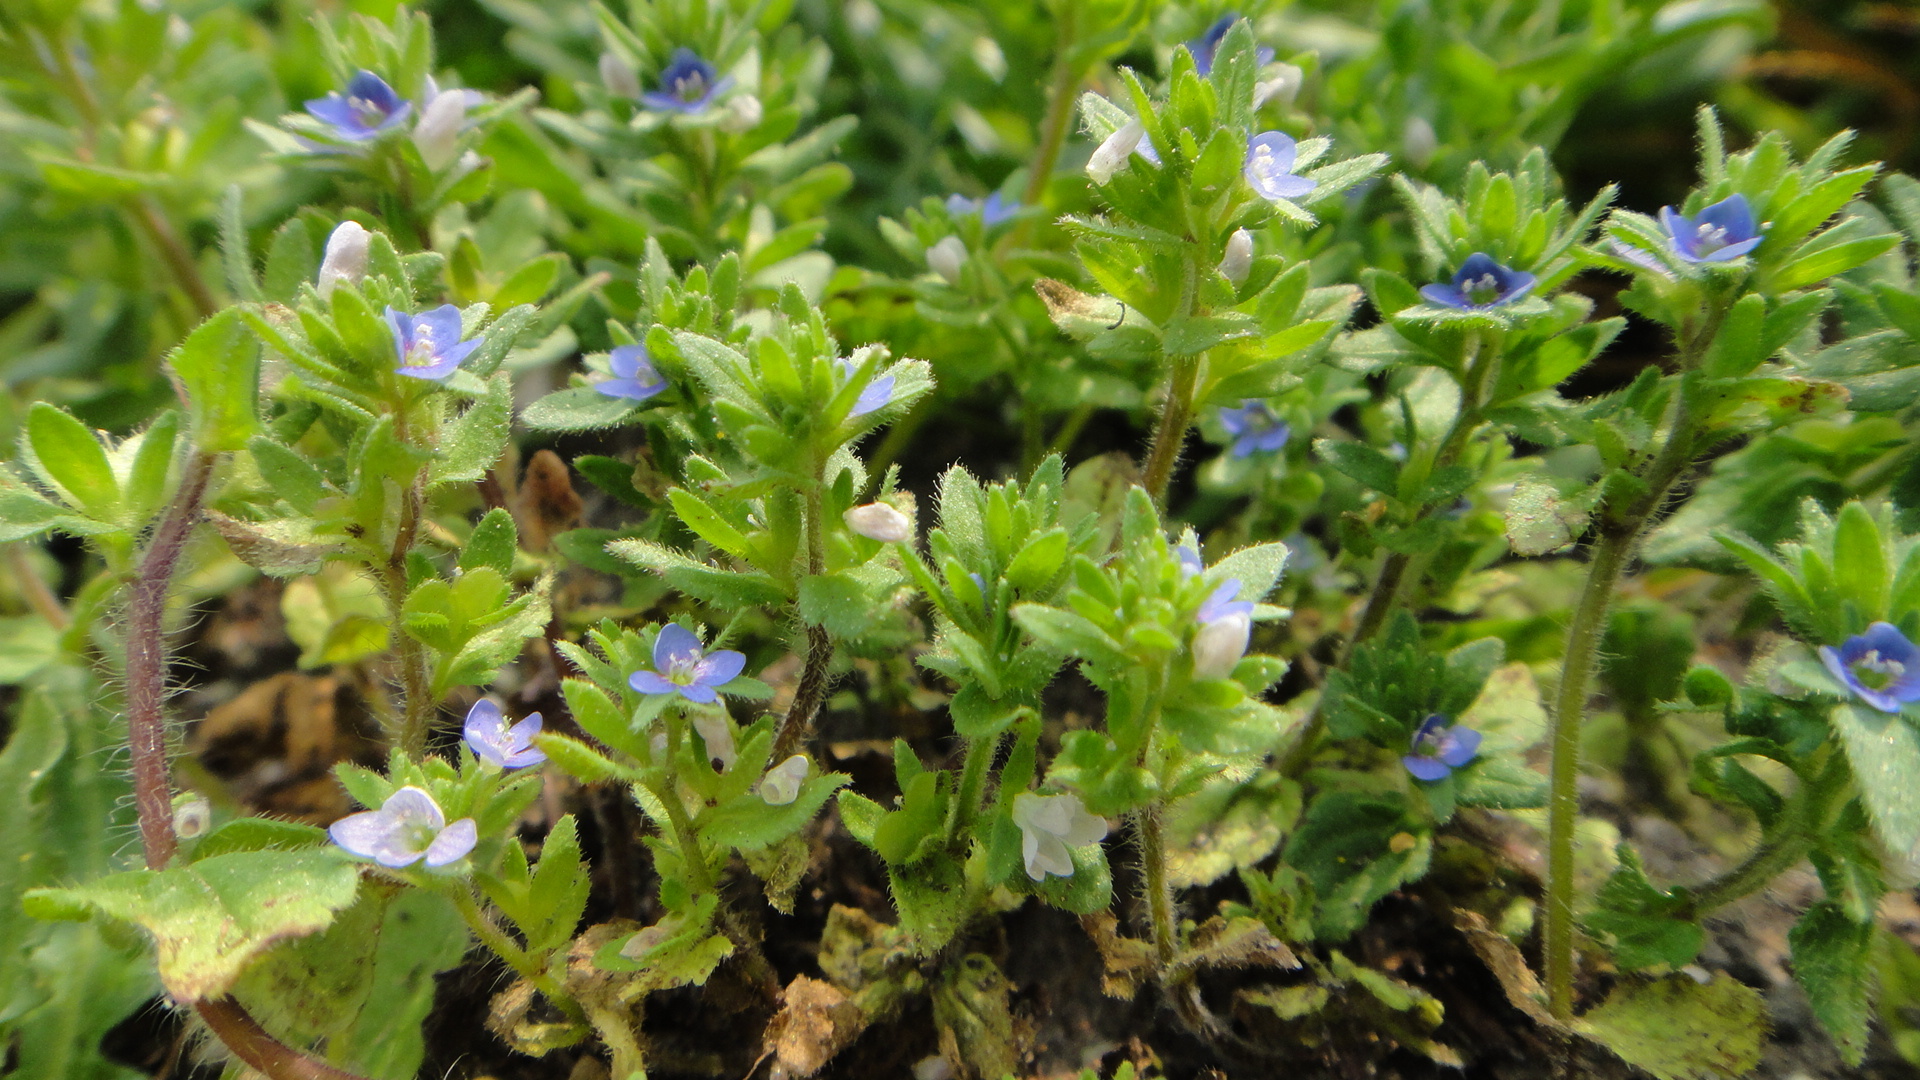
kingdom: Plantae
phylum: Tracheophyta
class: Magnoliopsida
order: Lamiales
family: Plantaginaceae
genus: Veronica
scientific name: Veronica arvensis
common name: Corn speedwell
